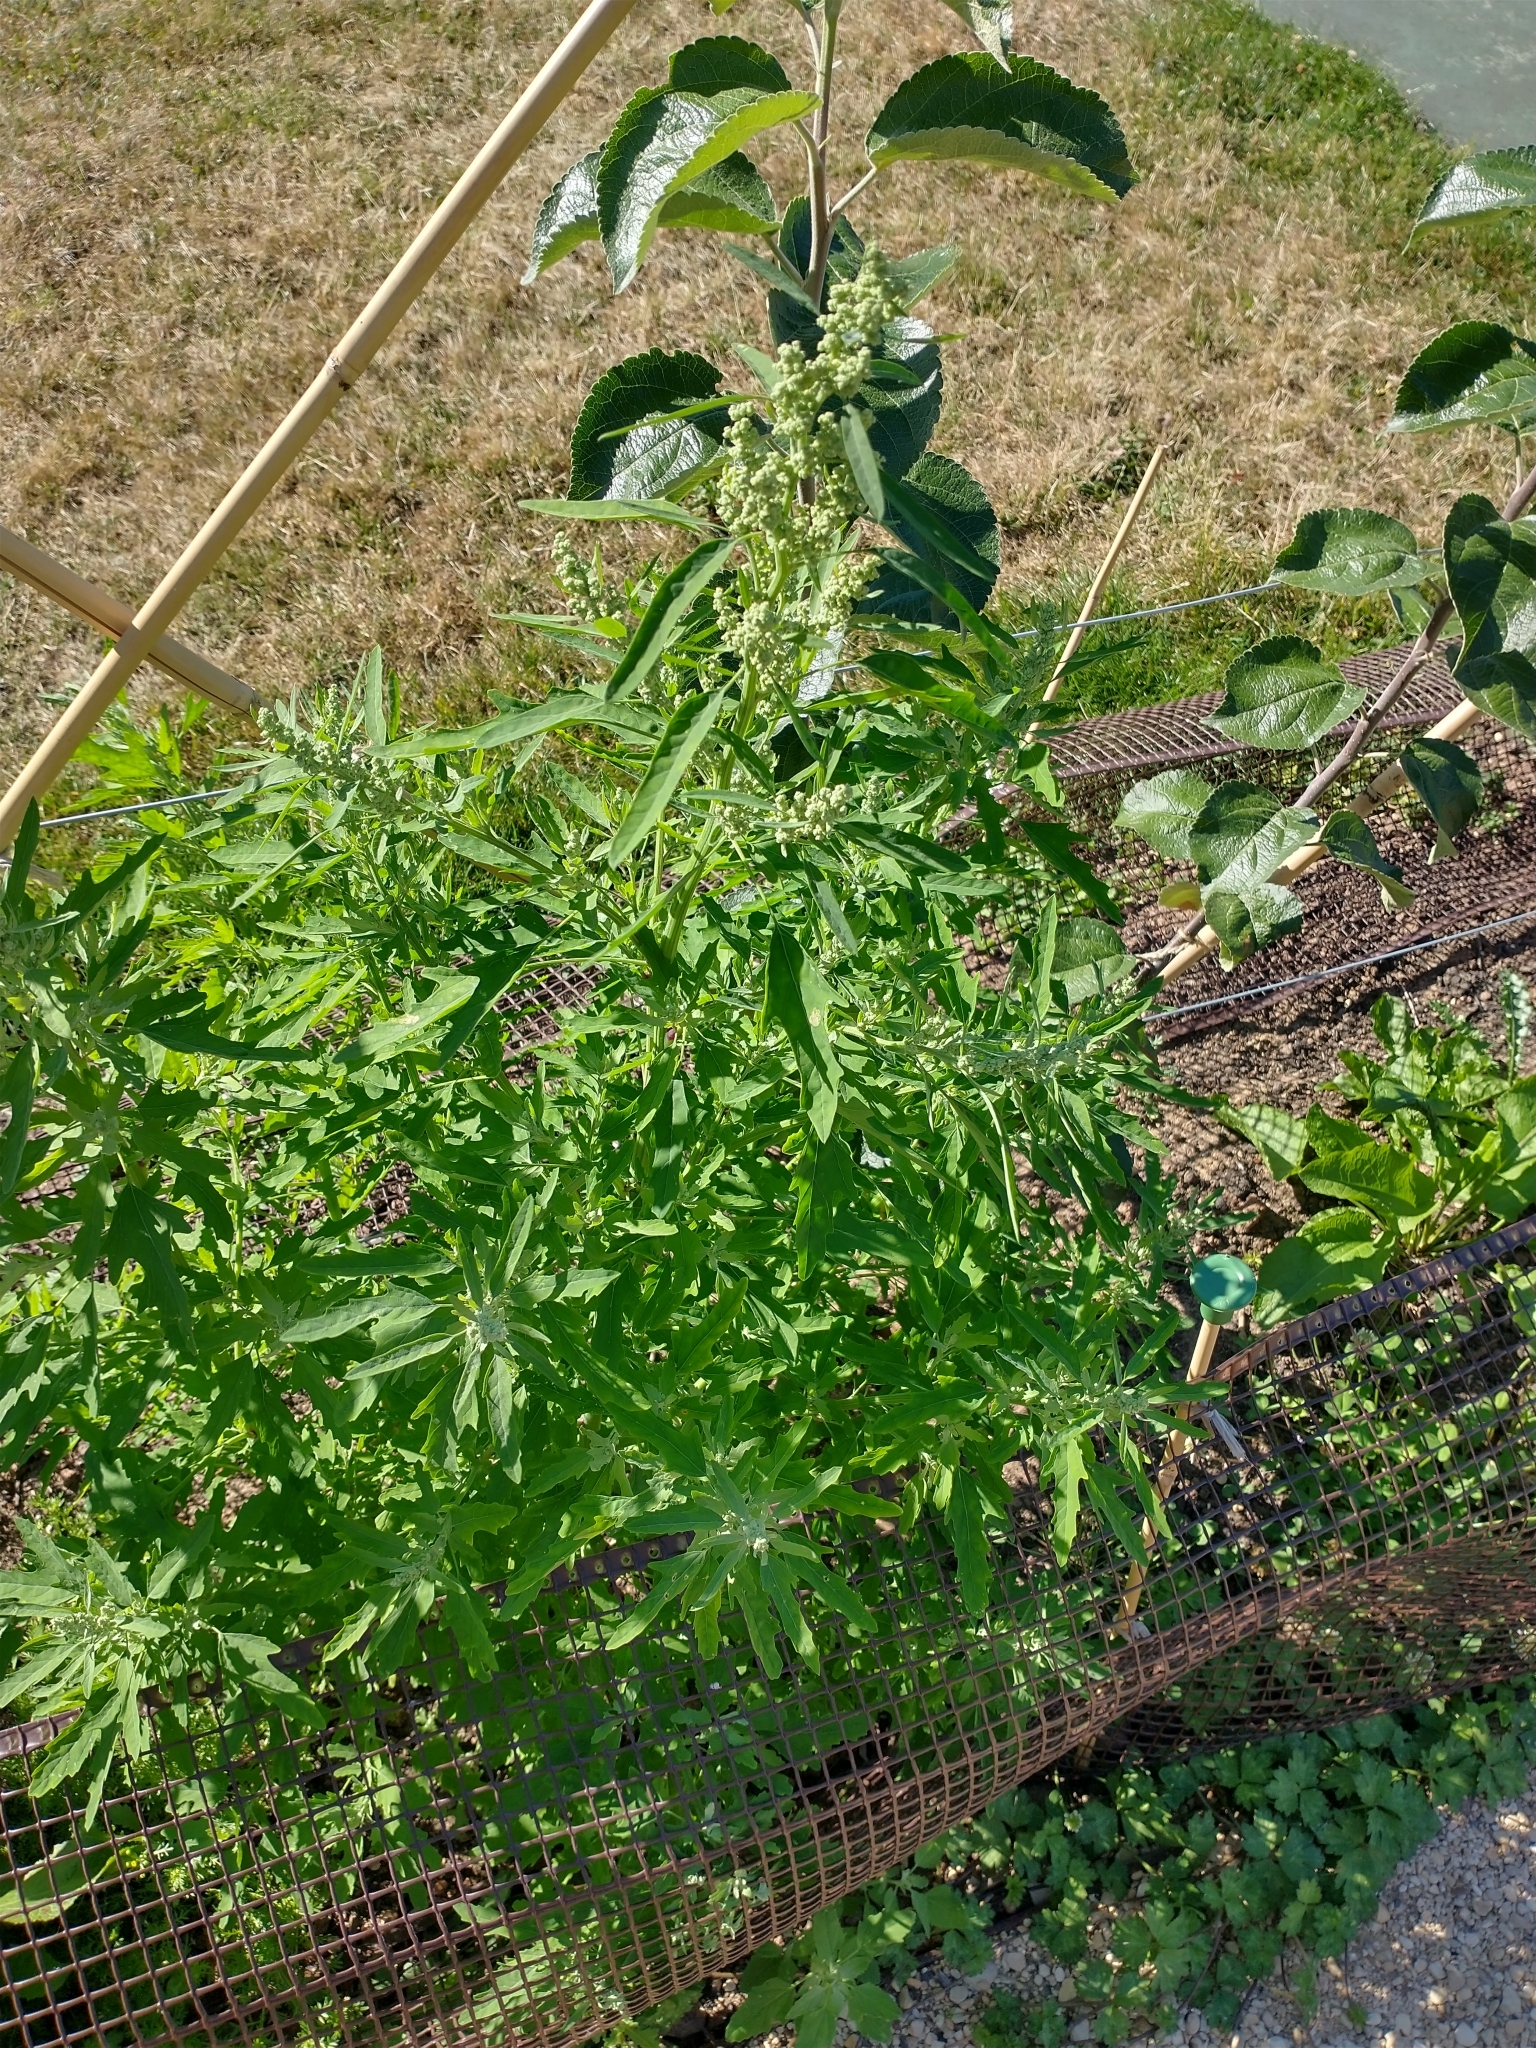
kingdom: Plantae
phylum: Tracheophyta
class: Magnoliopsida
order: Caryophyllales
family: Amaranthaceae
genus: Chenopodium
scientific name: Chenopodium ficifolium
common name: Fig-leaved goosefoot
